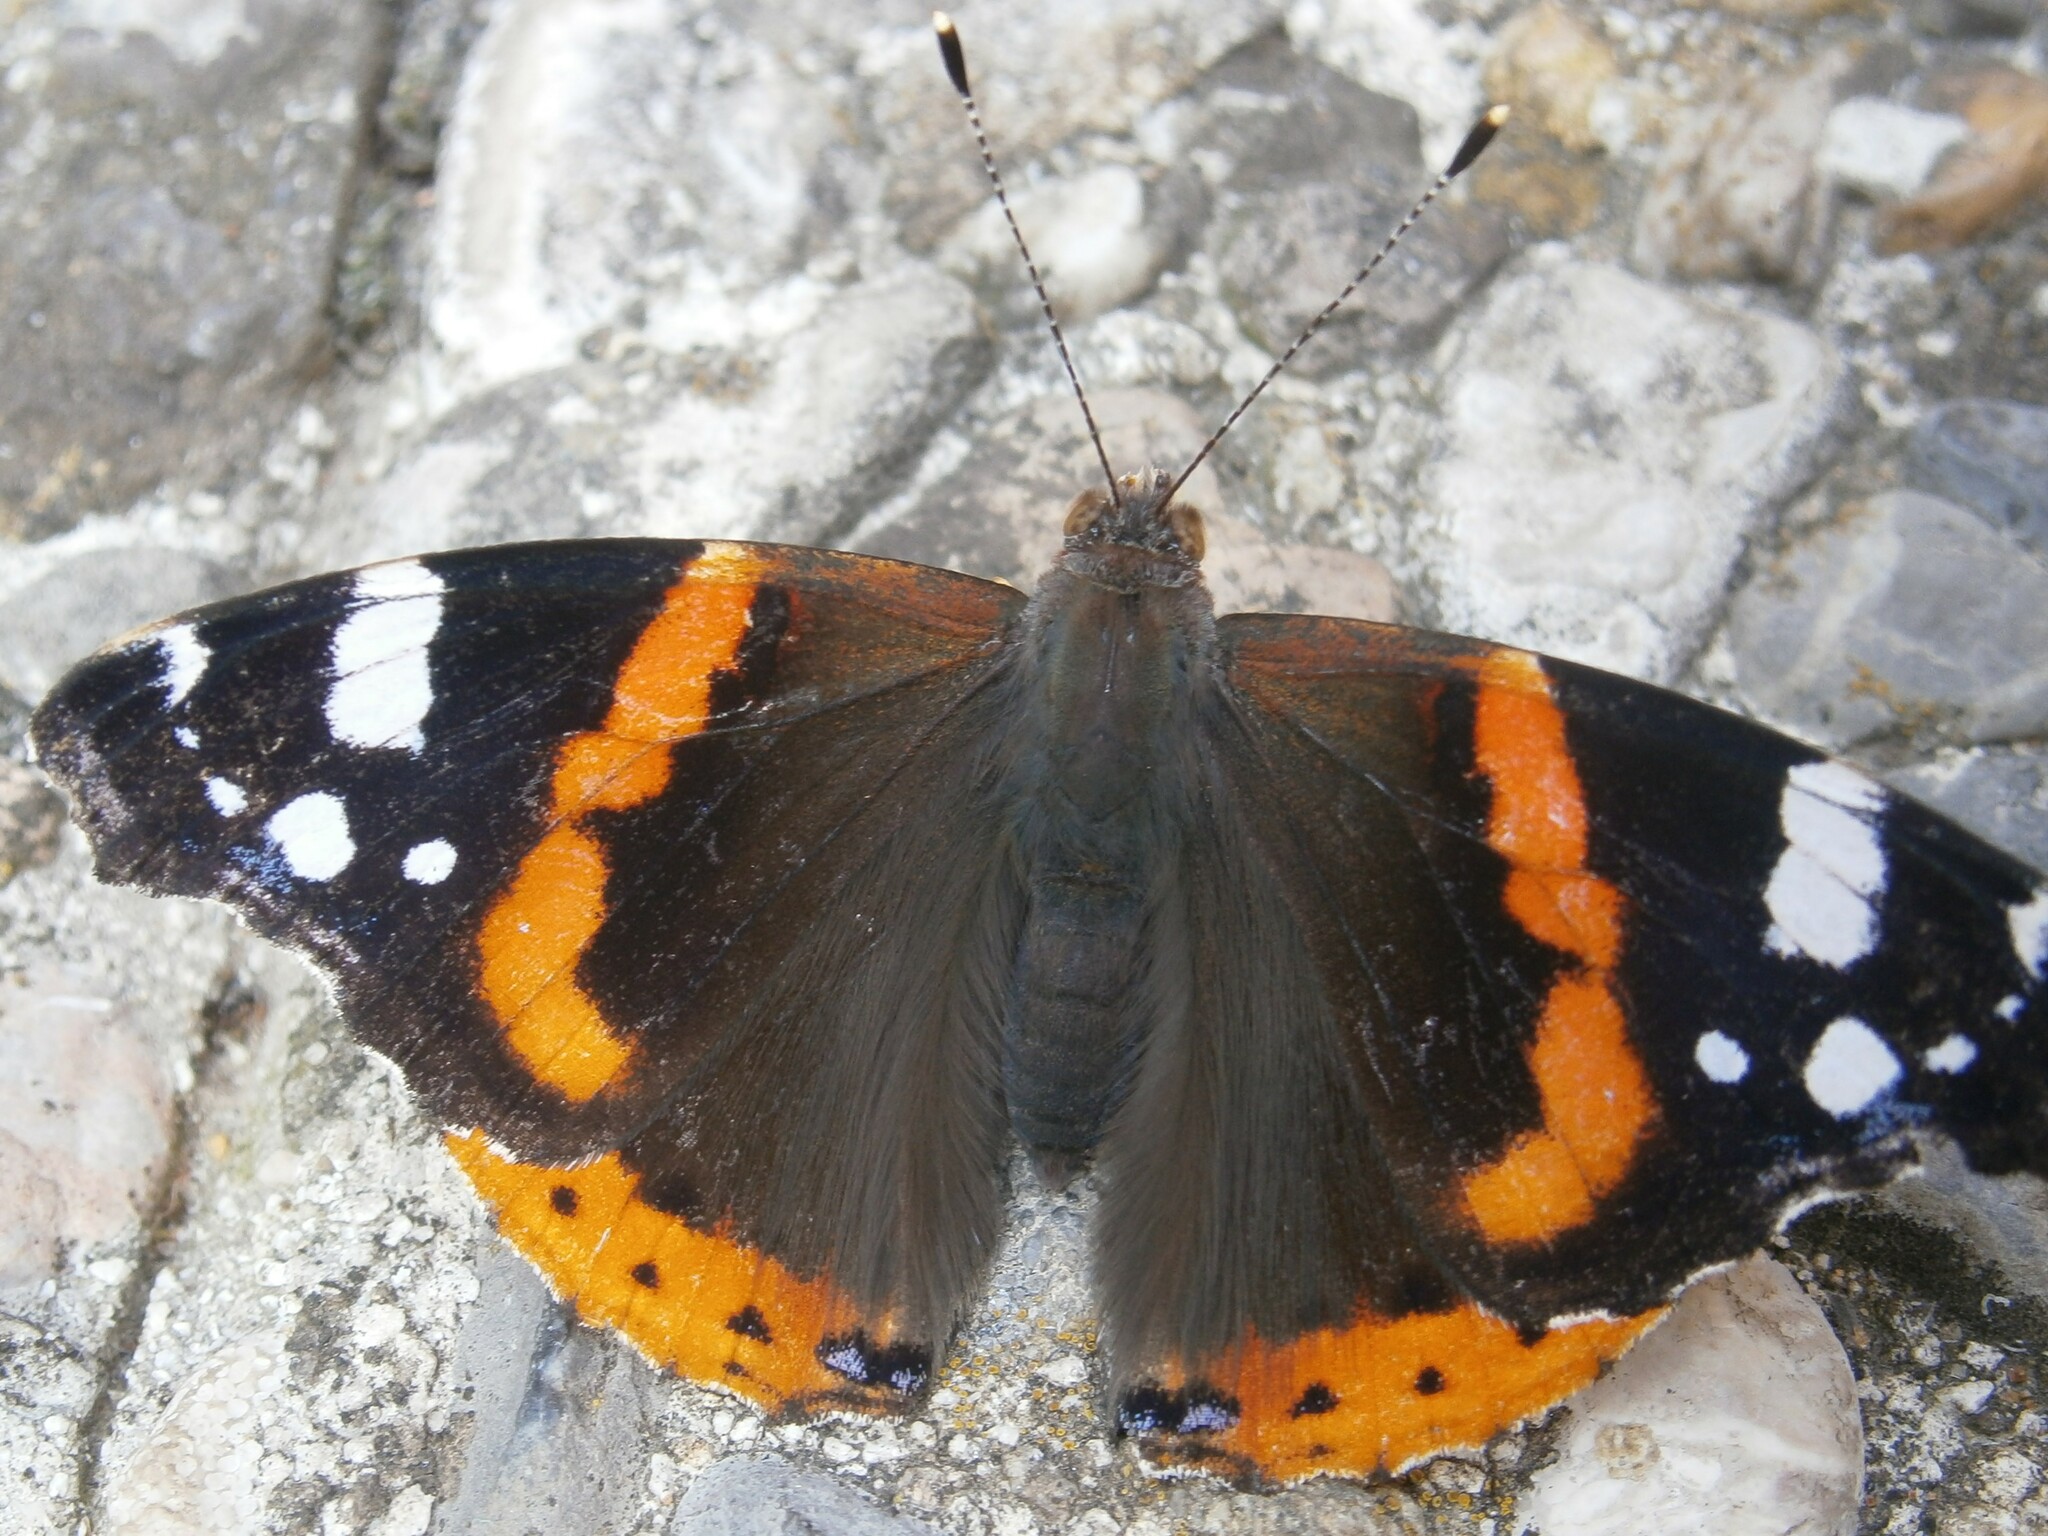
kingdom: Animalia
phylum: Arthropoda
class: Insecta
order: Lepidoptera
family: Nymphalidae
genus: Vanessa
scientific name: Vanessa atalanta
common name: Red admiral
